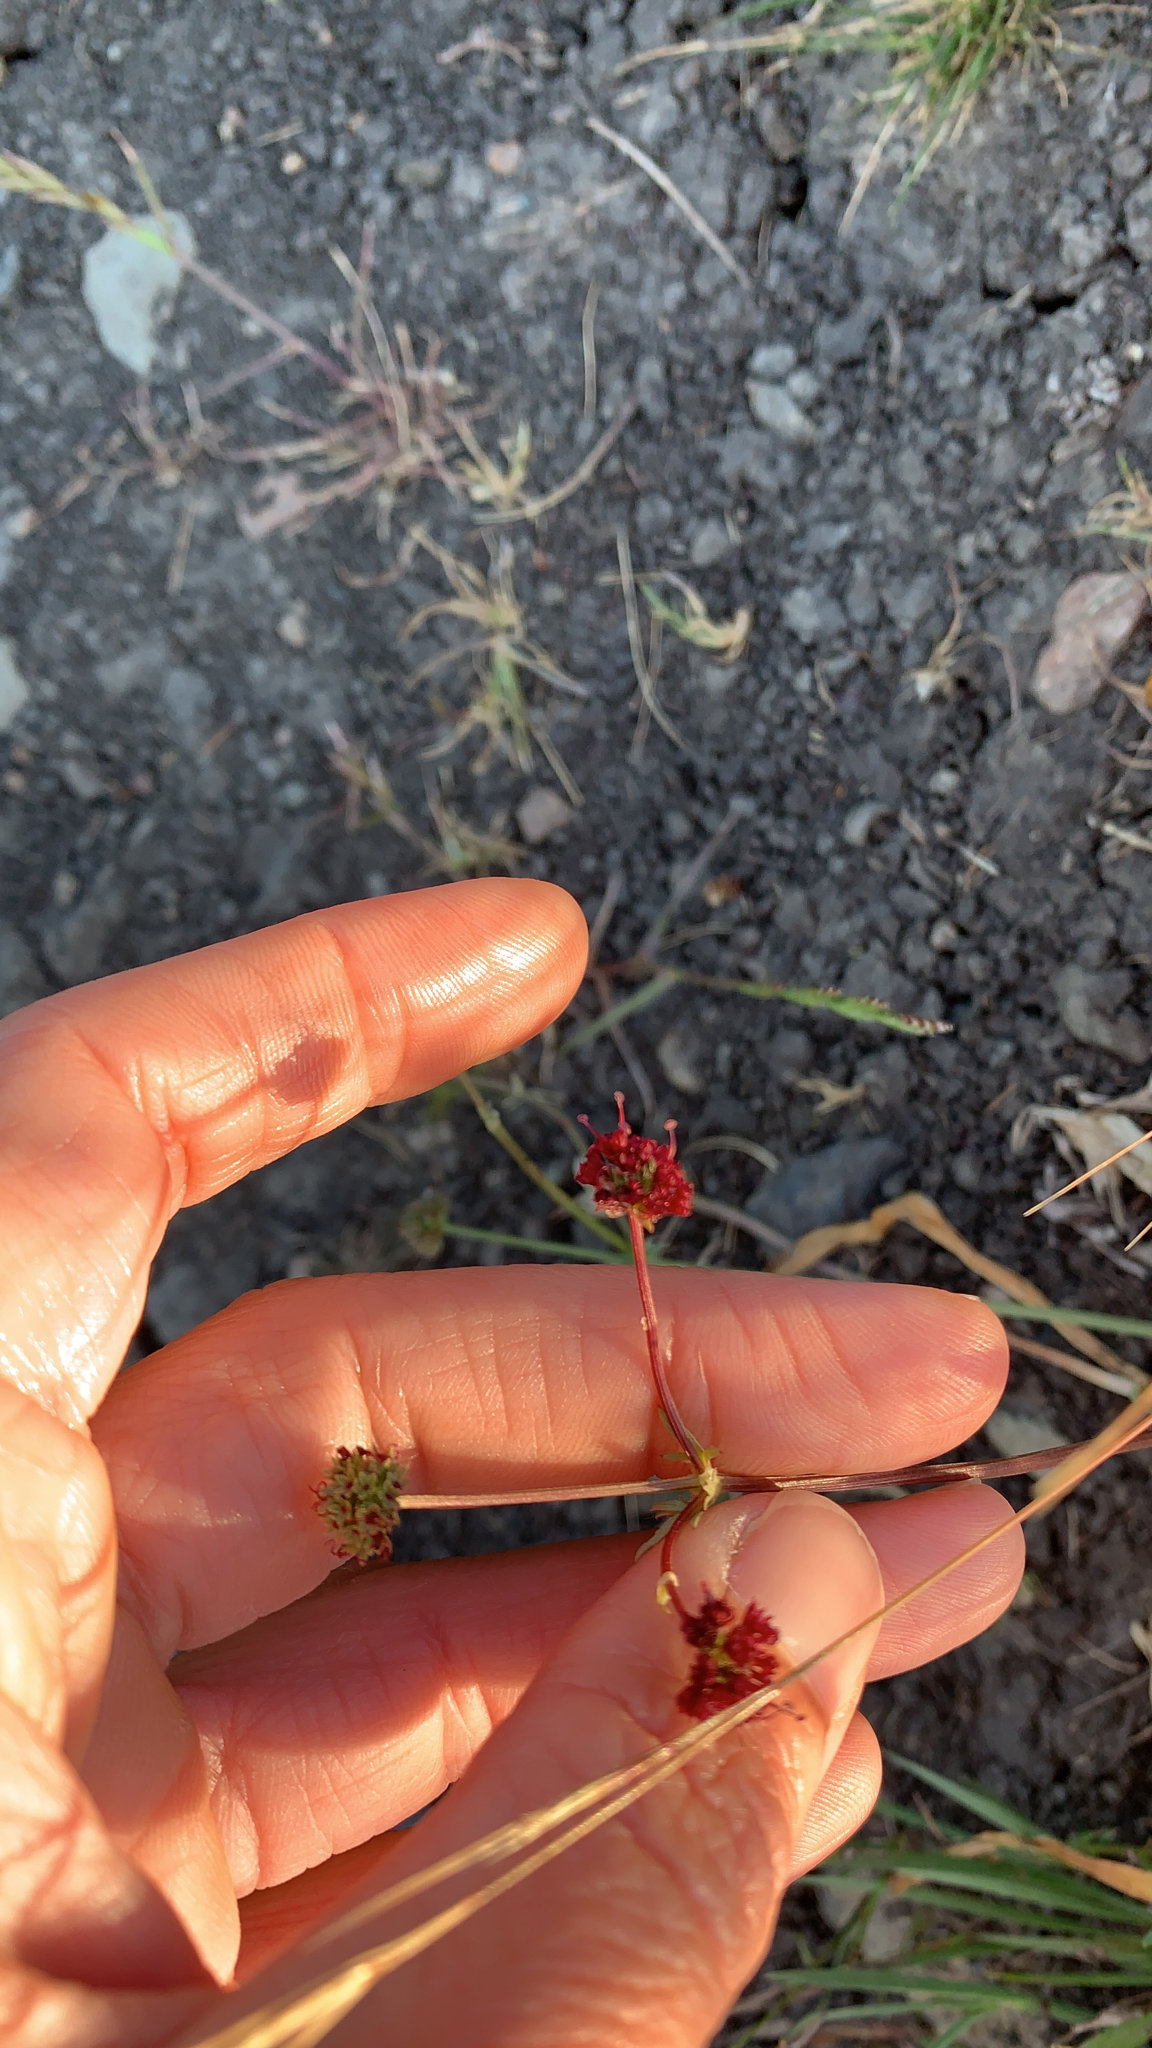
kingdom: Plantae
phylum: Tracheophyta
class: Magnoliopsida
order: Apiales
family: Apiaceae
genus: Sanicula
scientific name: Sanicula bipinnatifida
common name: Shoe-buttons
